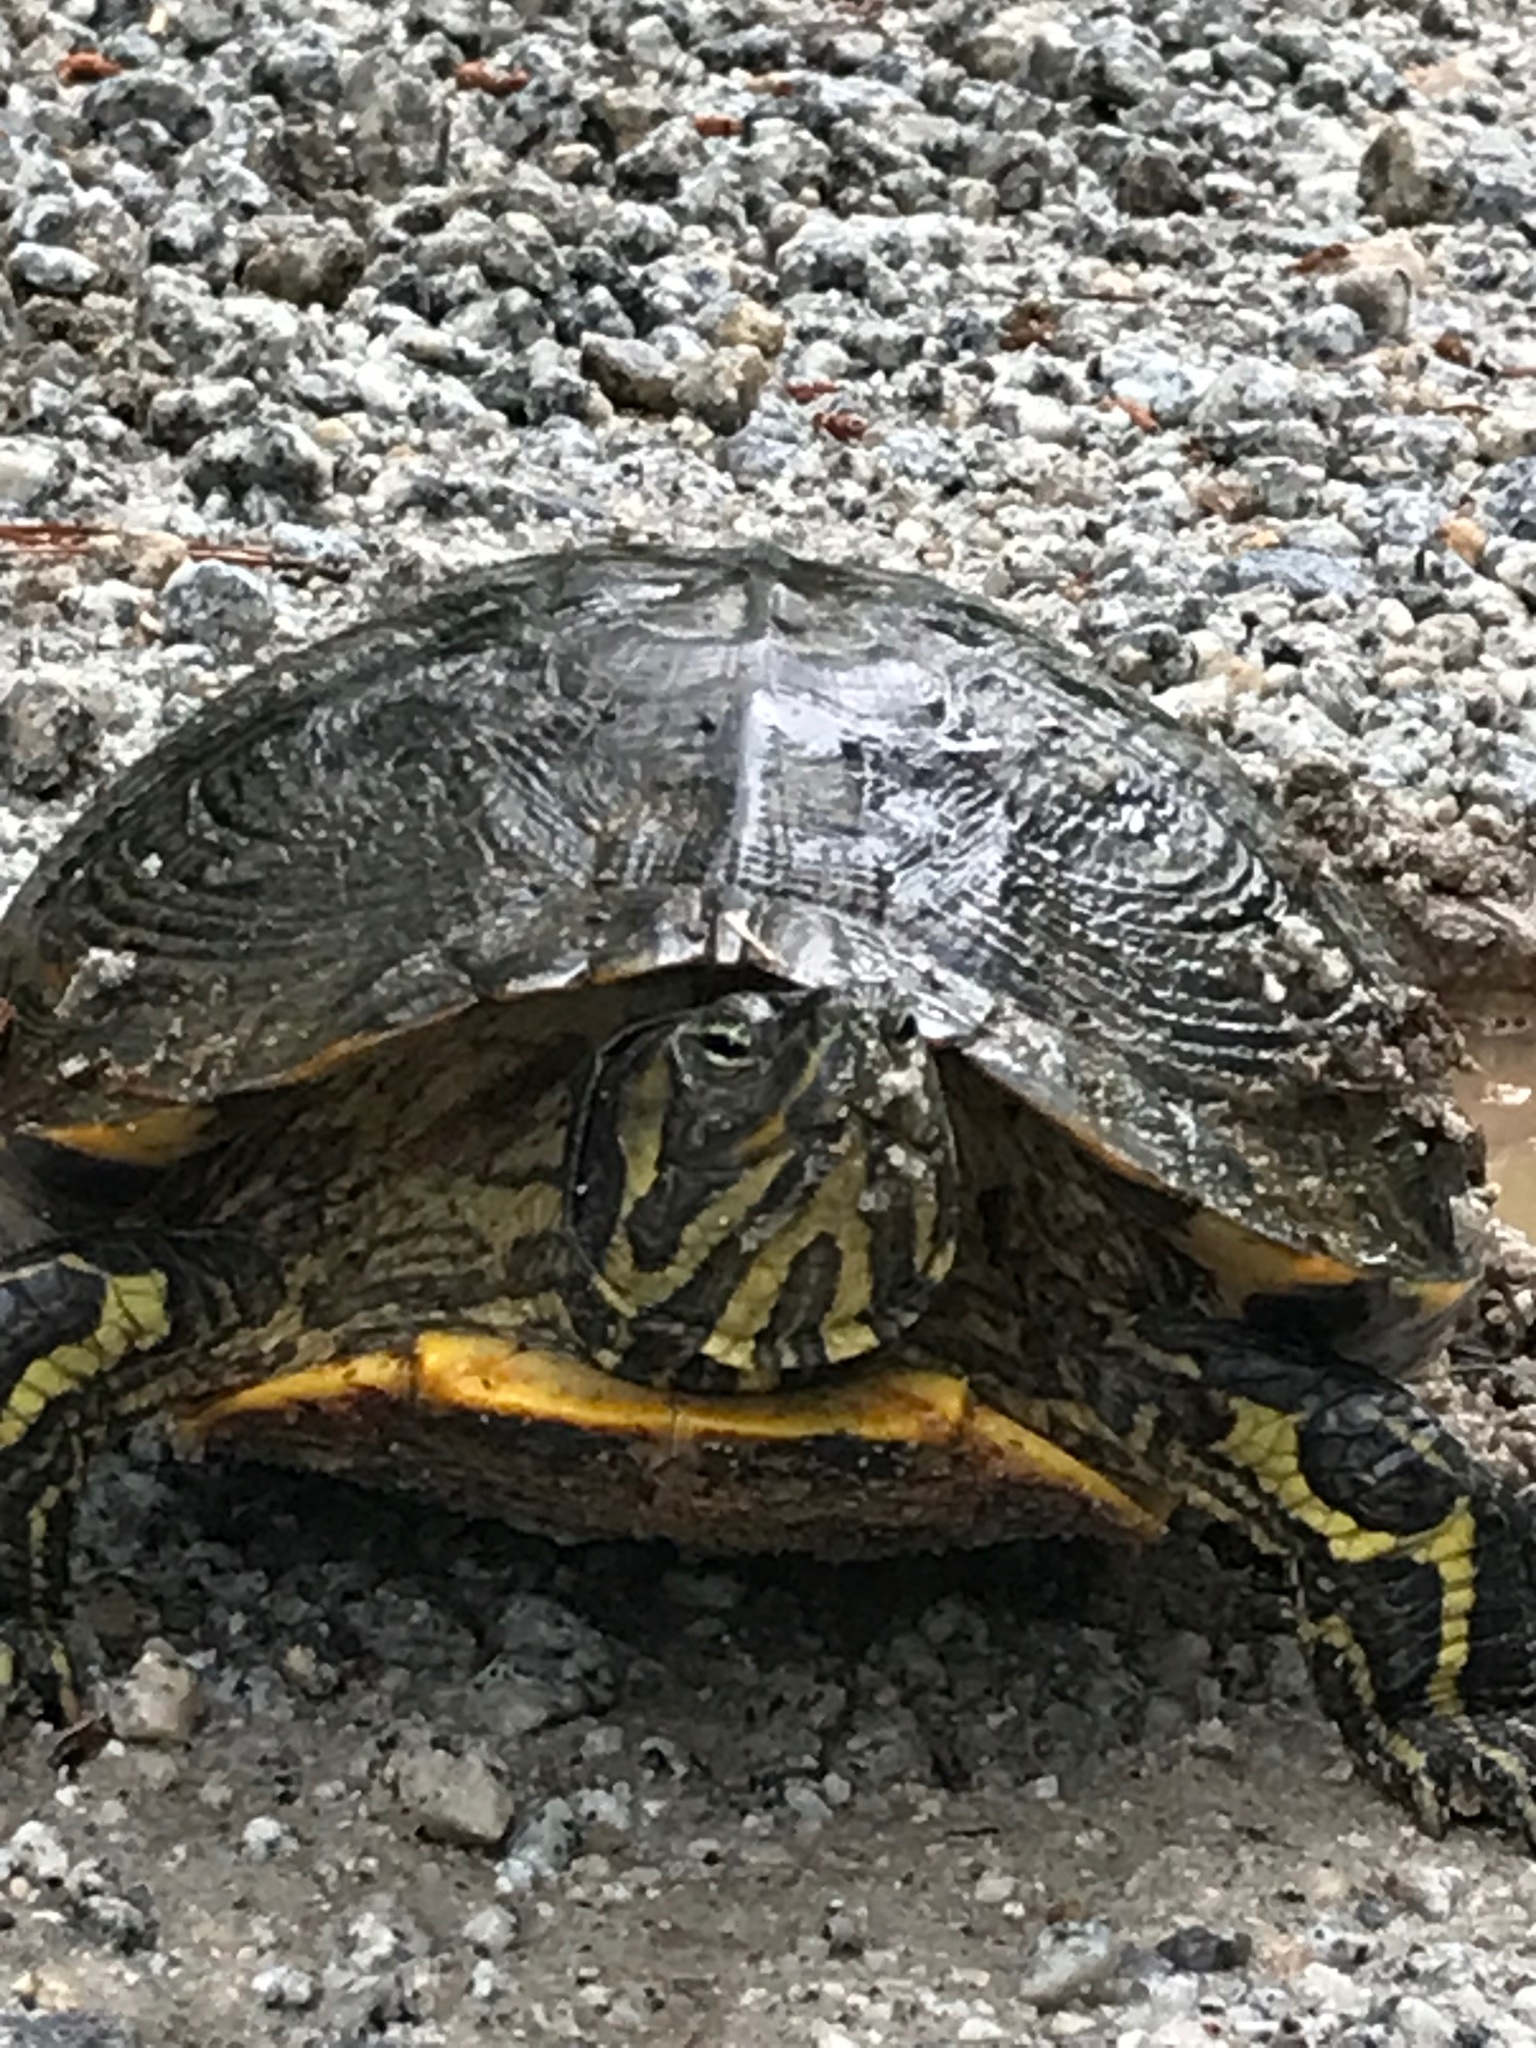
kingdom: Animalia
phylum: Chordata
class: Testudines
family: Emydidae
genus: Trachemys
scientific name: Trachemys scripta
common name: Slider
